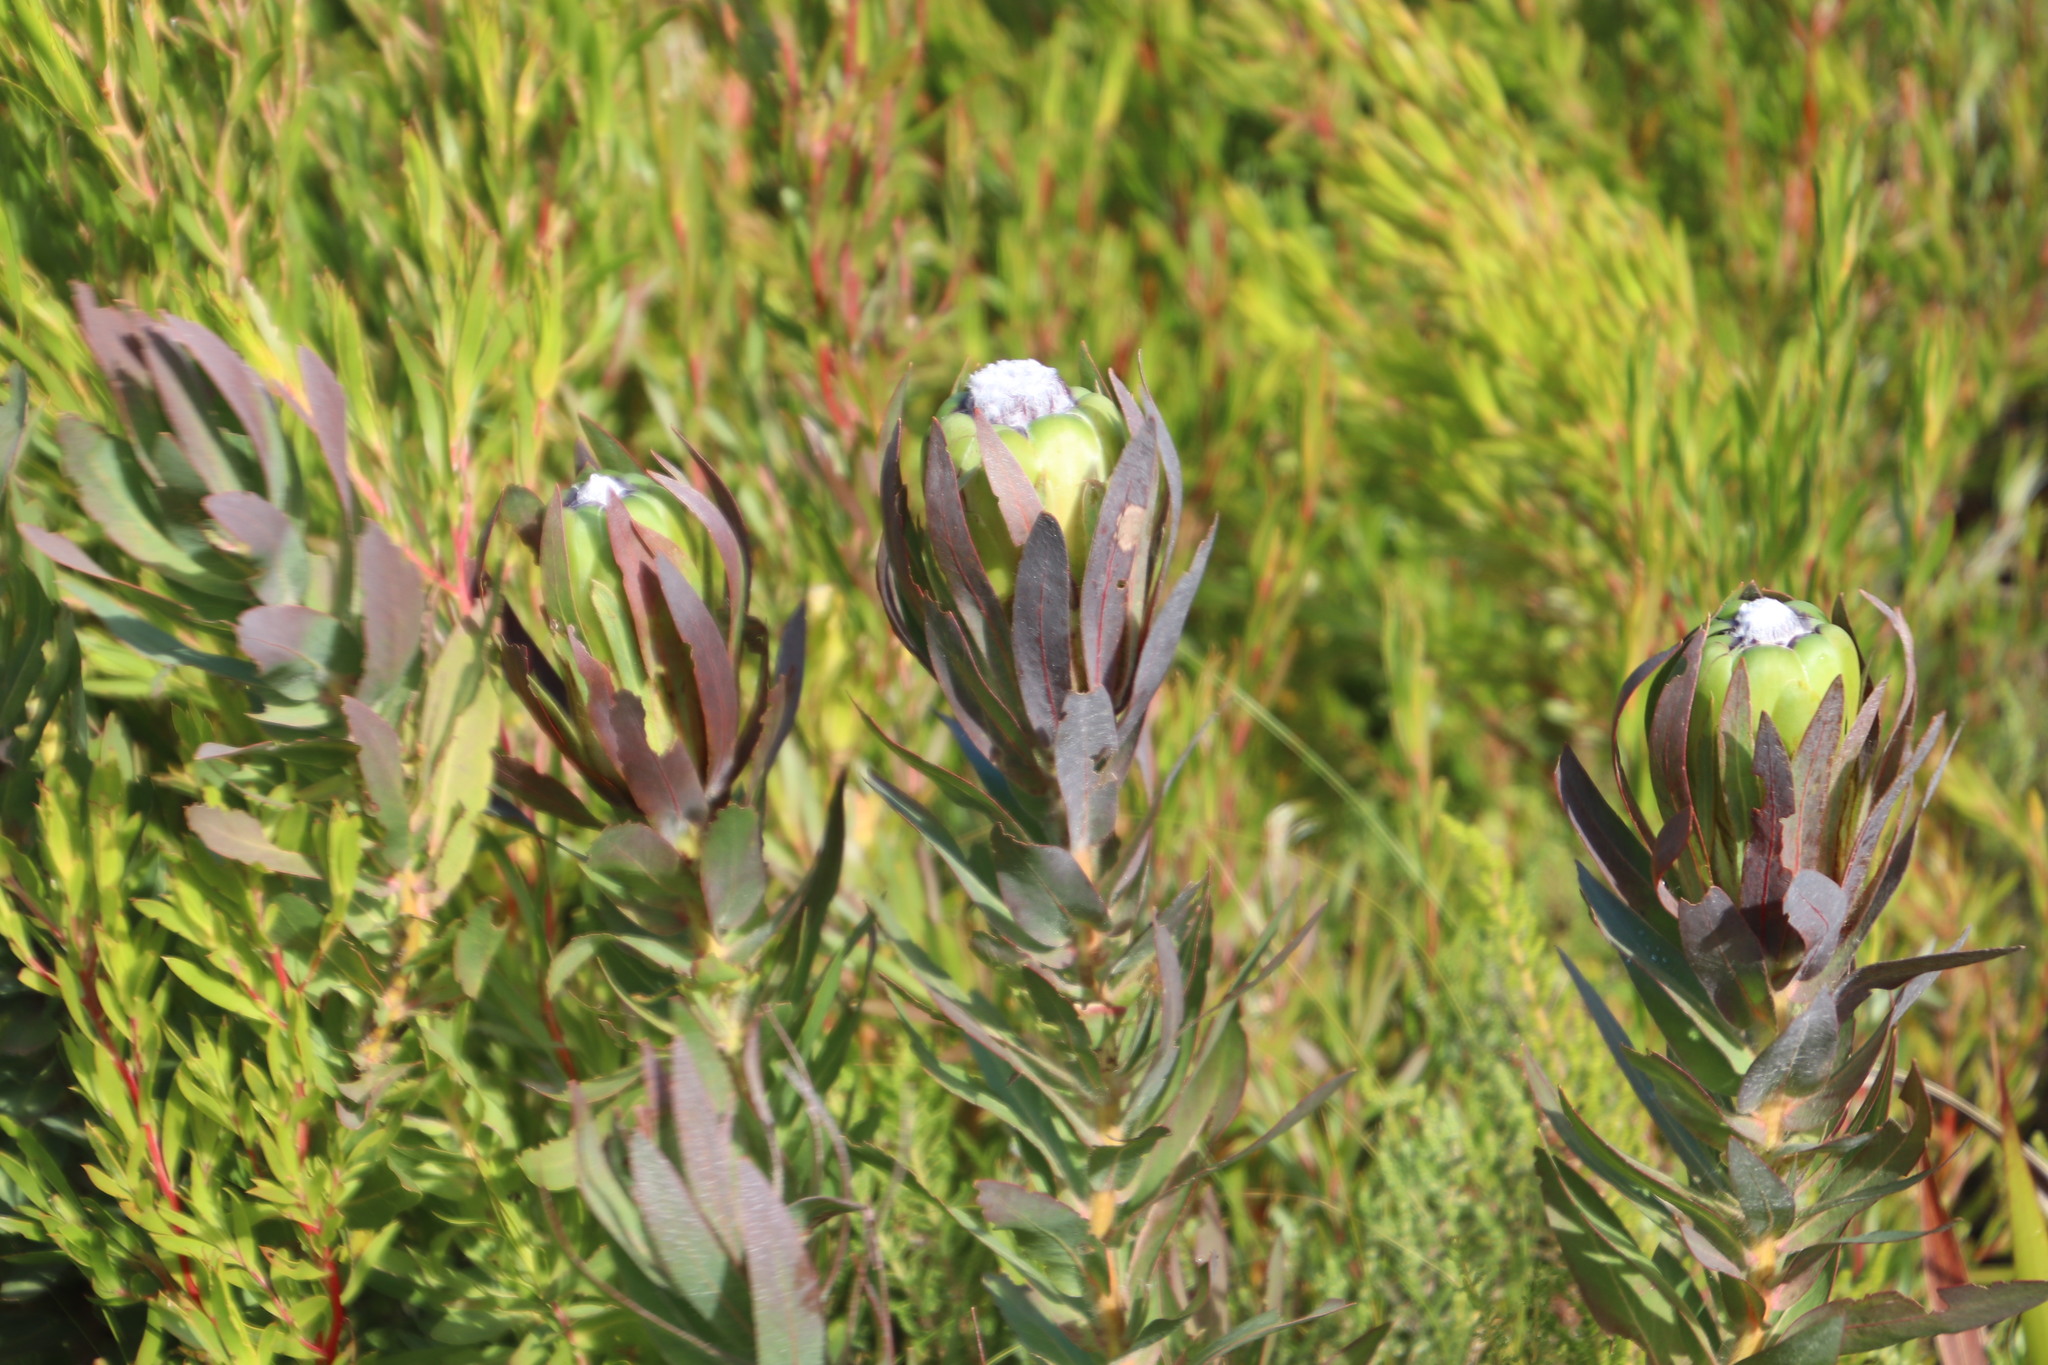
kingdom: Plantae
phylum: Tracheophyta
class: Magnoliopsida
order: Proteales
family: Proteaceae
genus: Protea
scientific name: Protea coronata
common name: Green sugarbush
